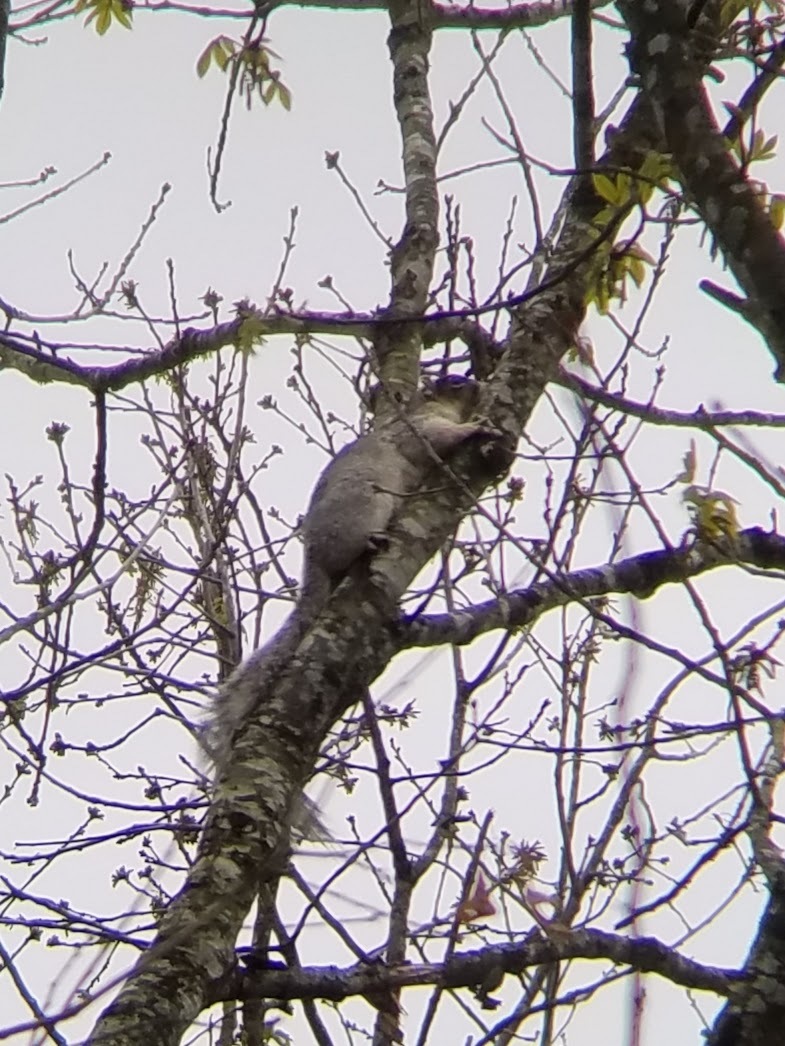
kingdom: Animalia
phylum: Chordata
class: Mammalia
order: Rodentia
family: Sciuridae
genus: Sciurus
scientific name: Sciurus niger
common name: Fox squirrel
